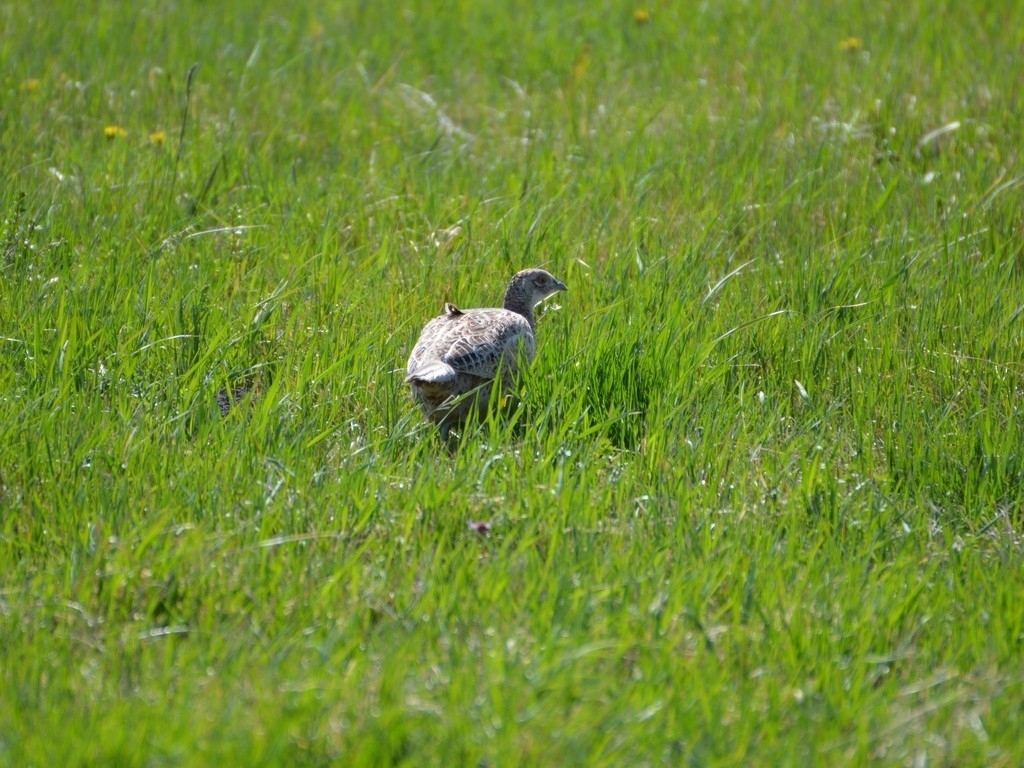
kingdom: Animalia
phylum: Chordata
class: Aves
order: Galliformes
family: Phasianidae
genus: Phasianus
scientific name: Phasianus colchicus
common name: Common pheasant
